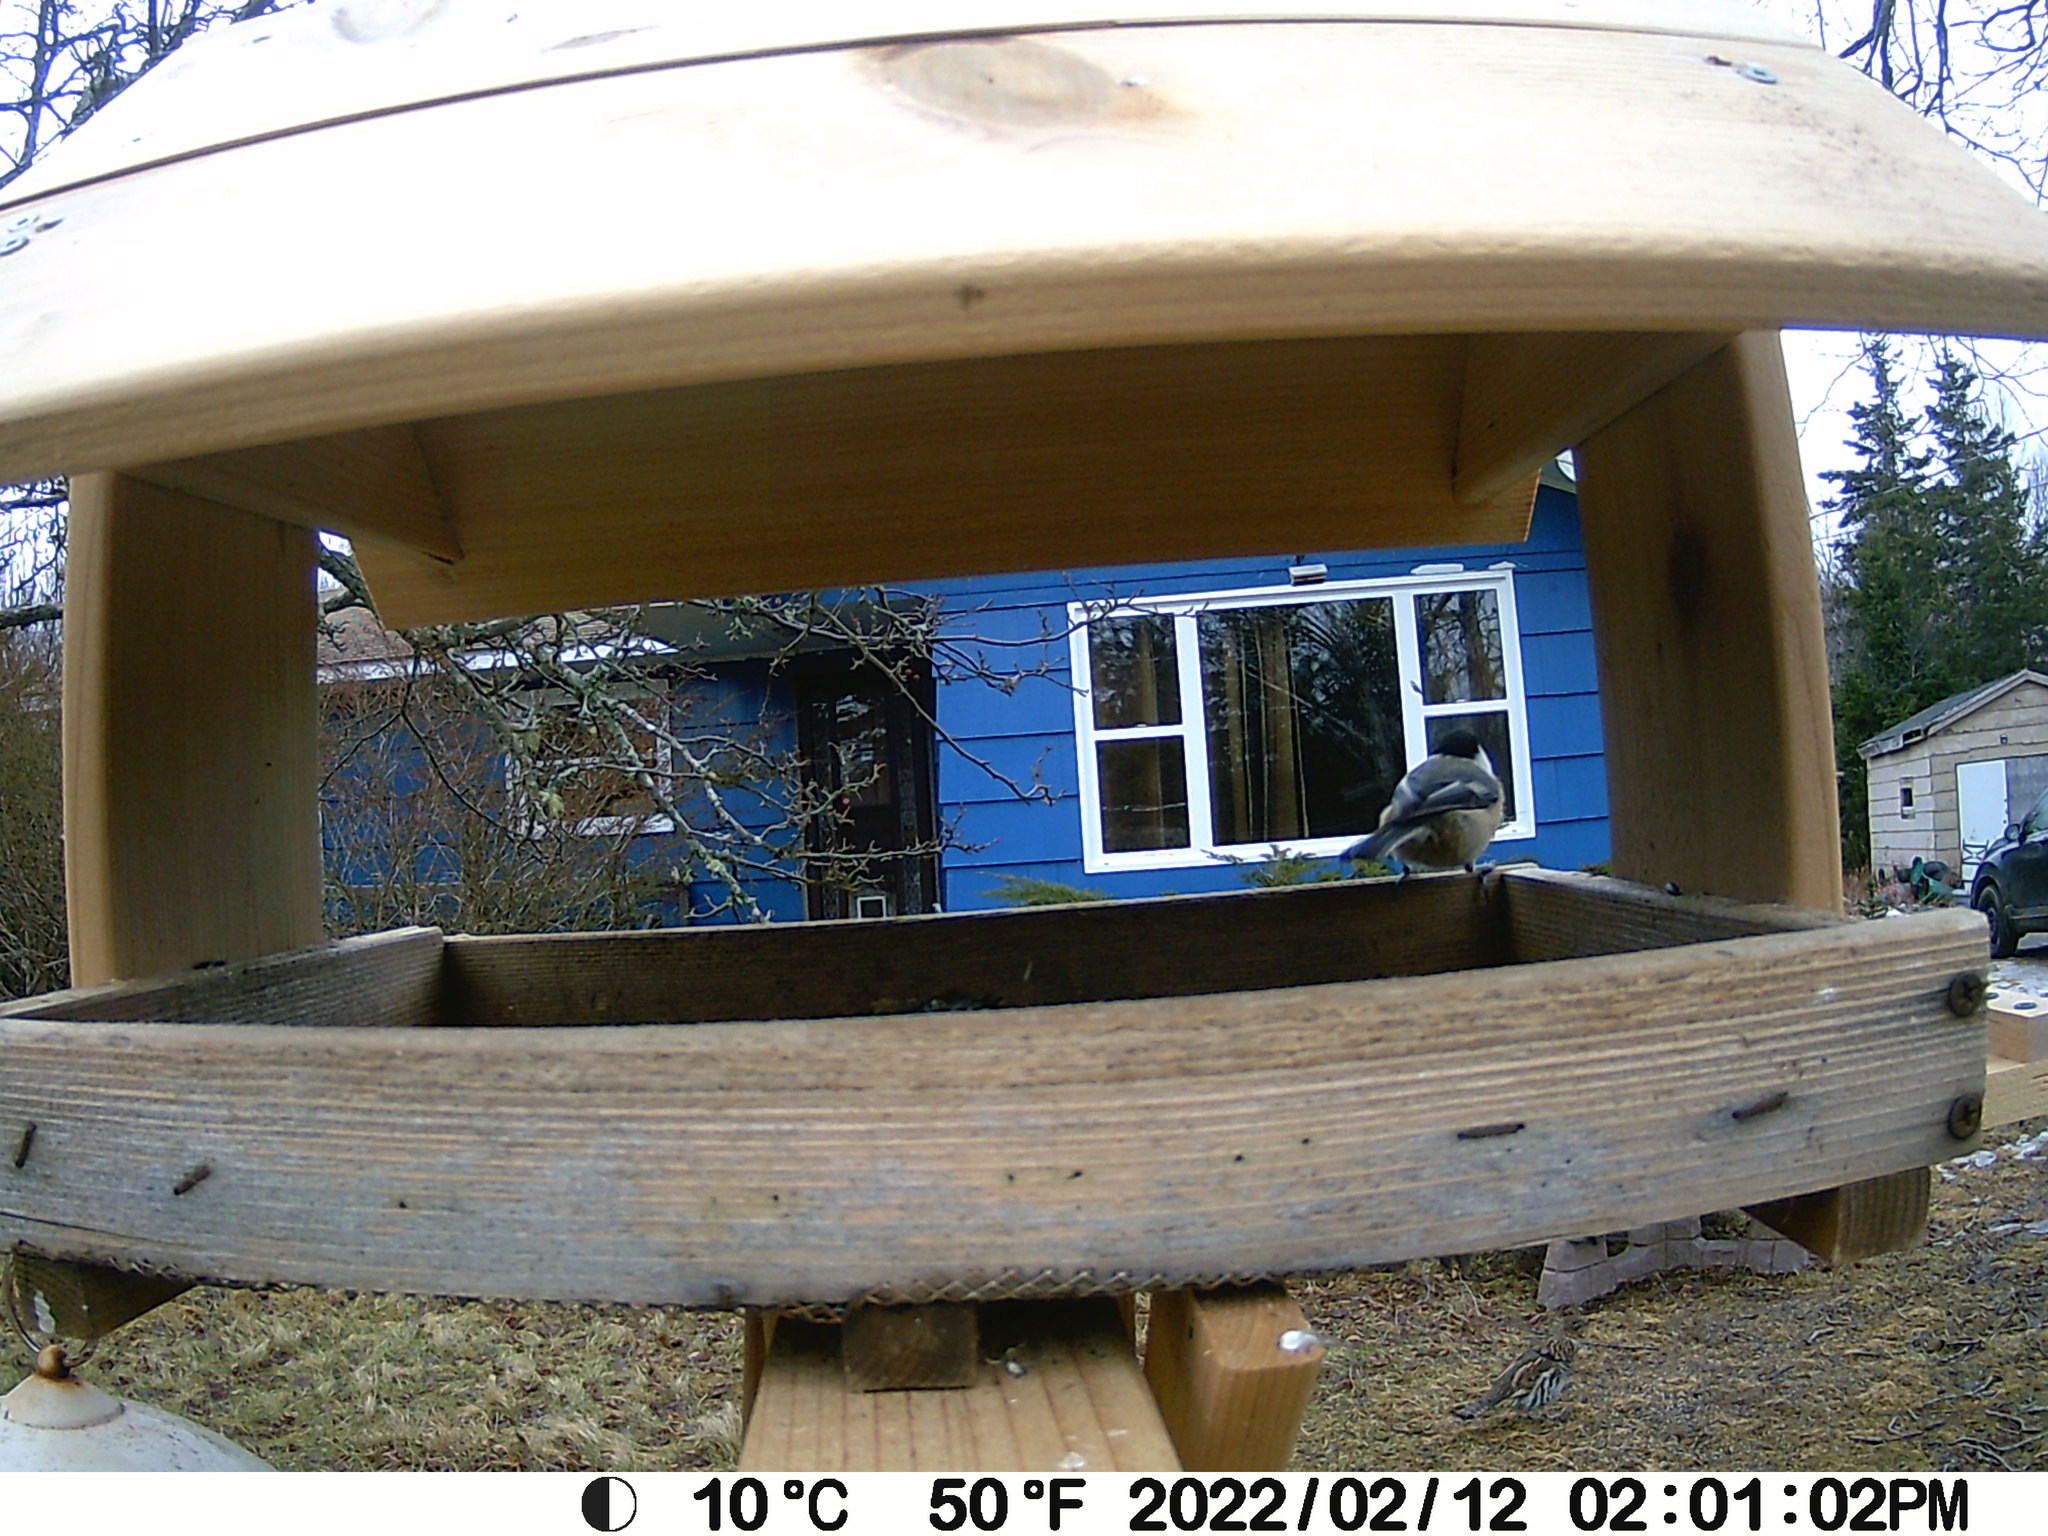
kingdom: Animalia
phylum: Chordata
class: Aves
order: Galliformes
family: Phasianidae
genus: Bonasa
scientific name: Bonasa umbellus
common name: Ruffed grouse
